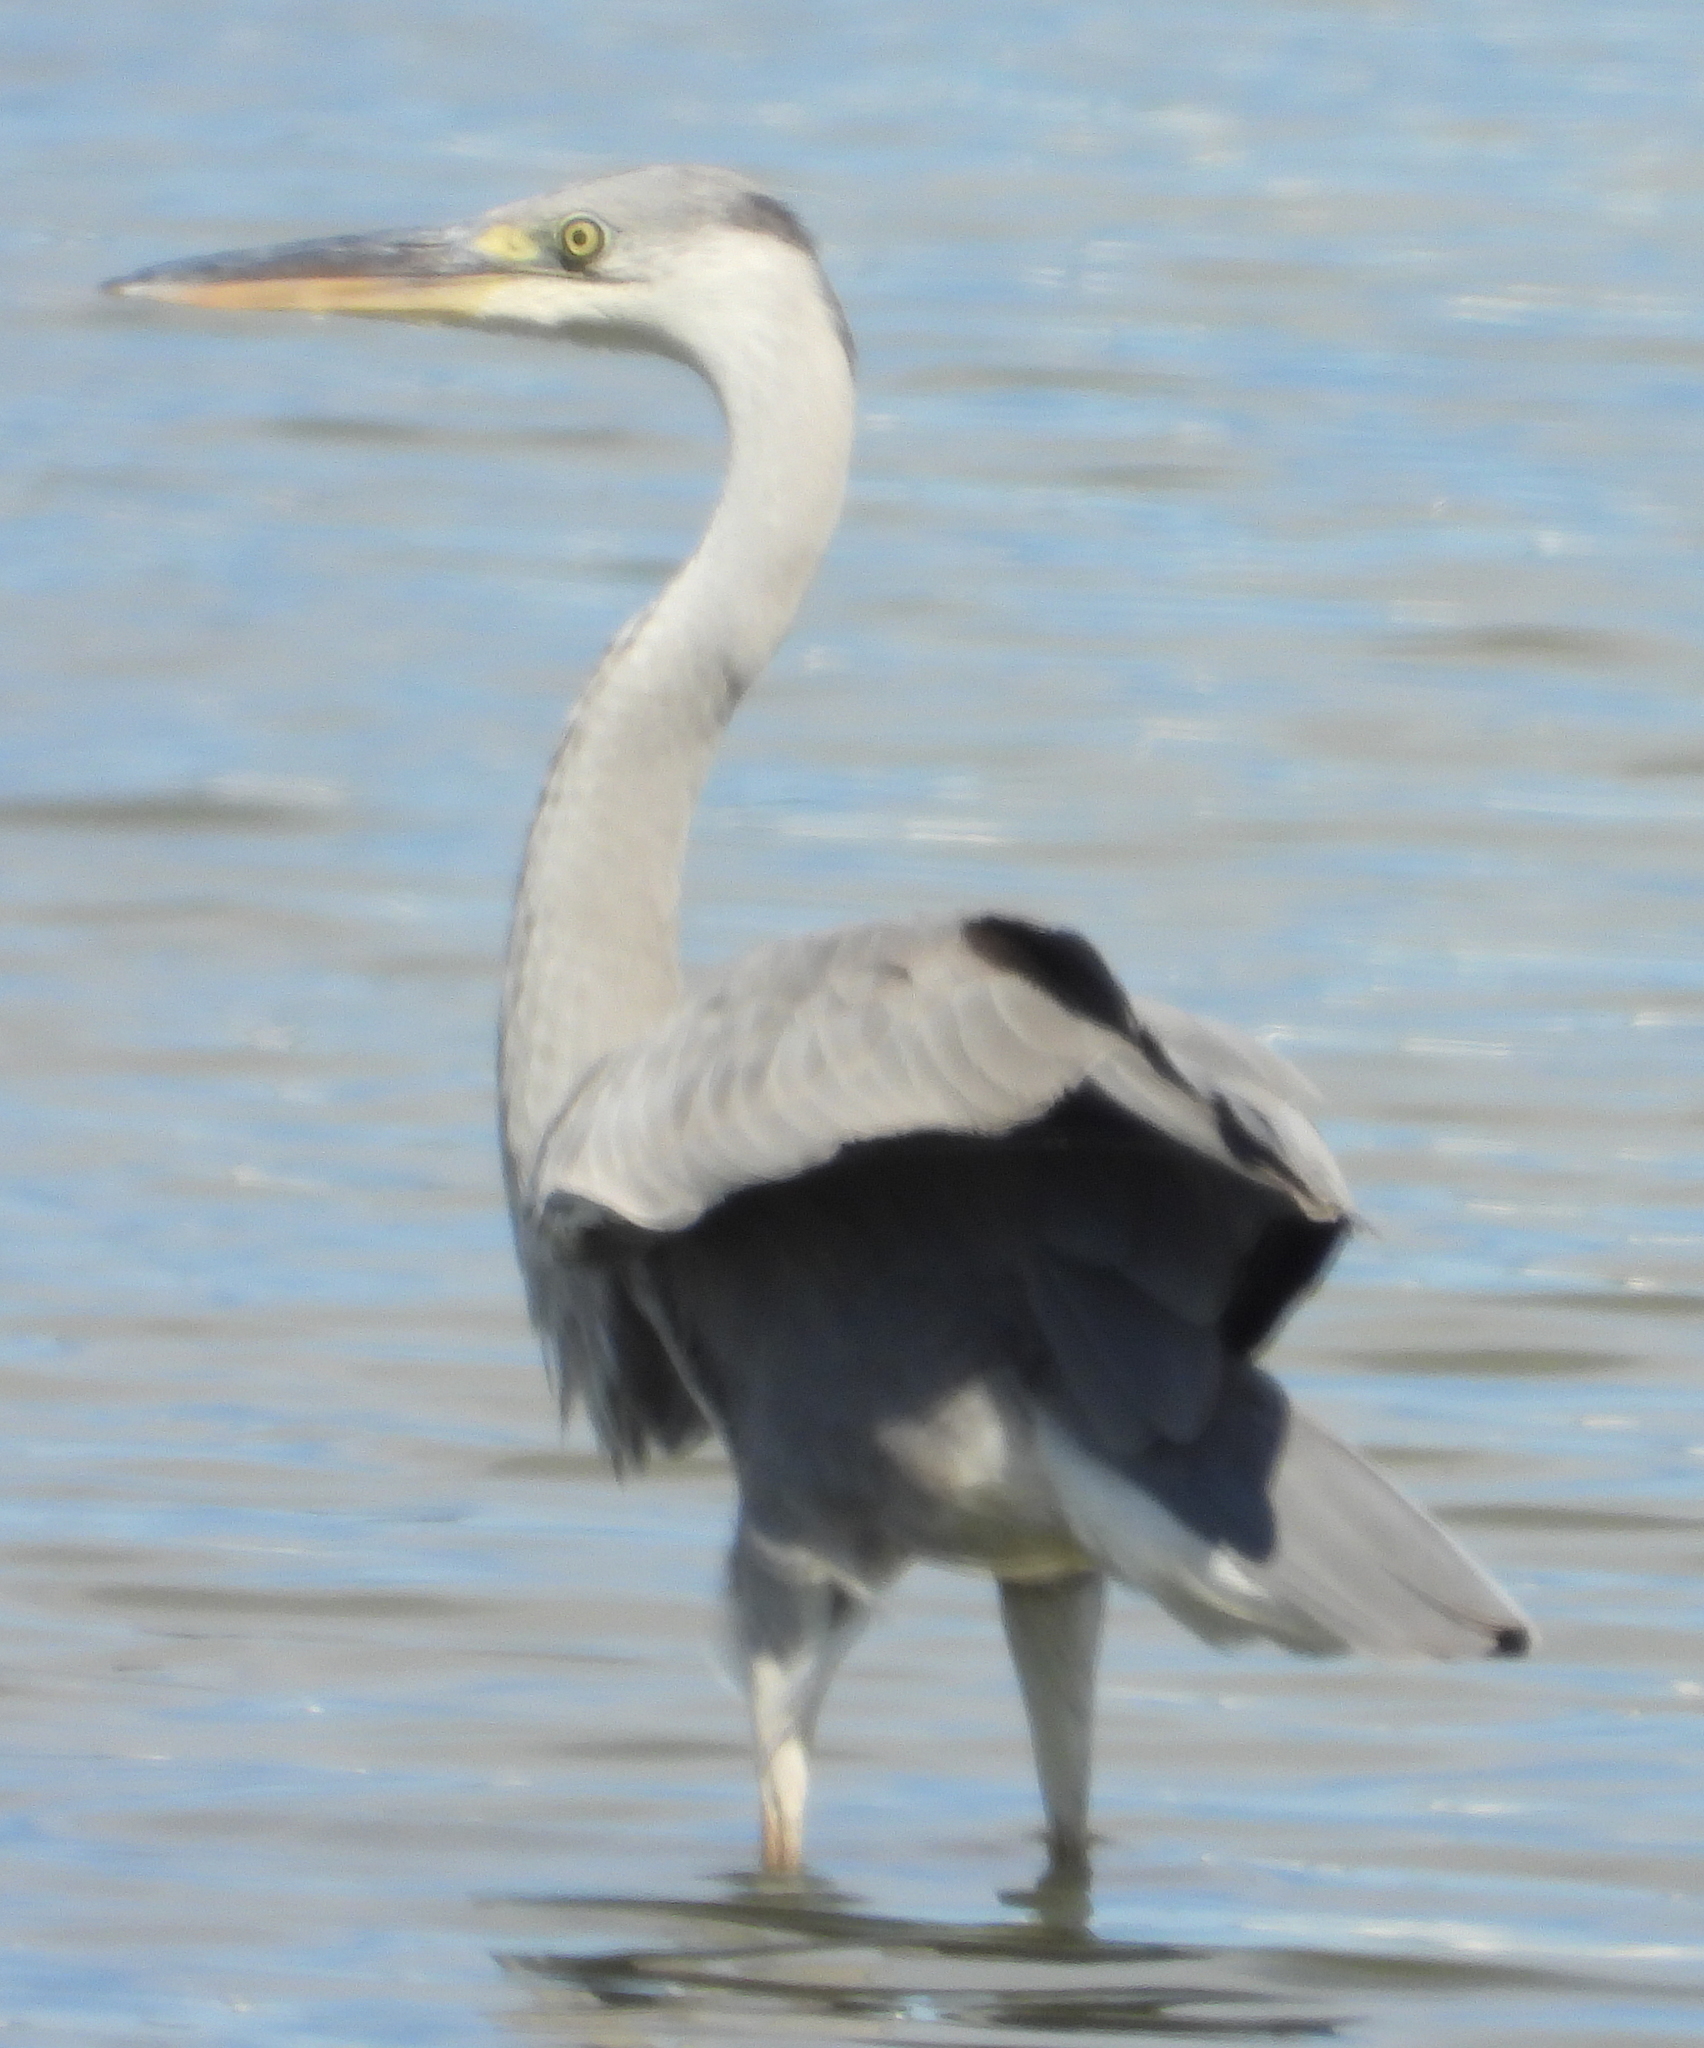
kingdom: Animalia
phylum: Chordata
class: Aves
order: Pelecaniformes
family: Ardeidae
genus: Ardea
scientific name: Ardea cinerea
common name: Grey heron
